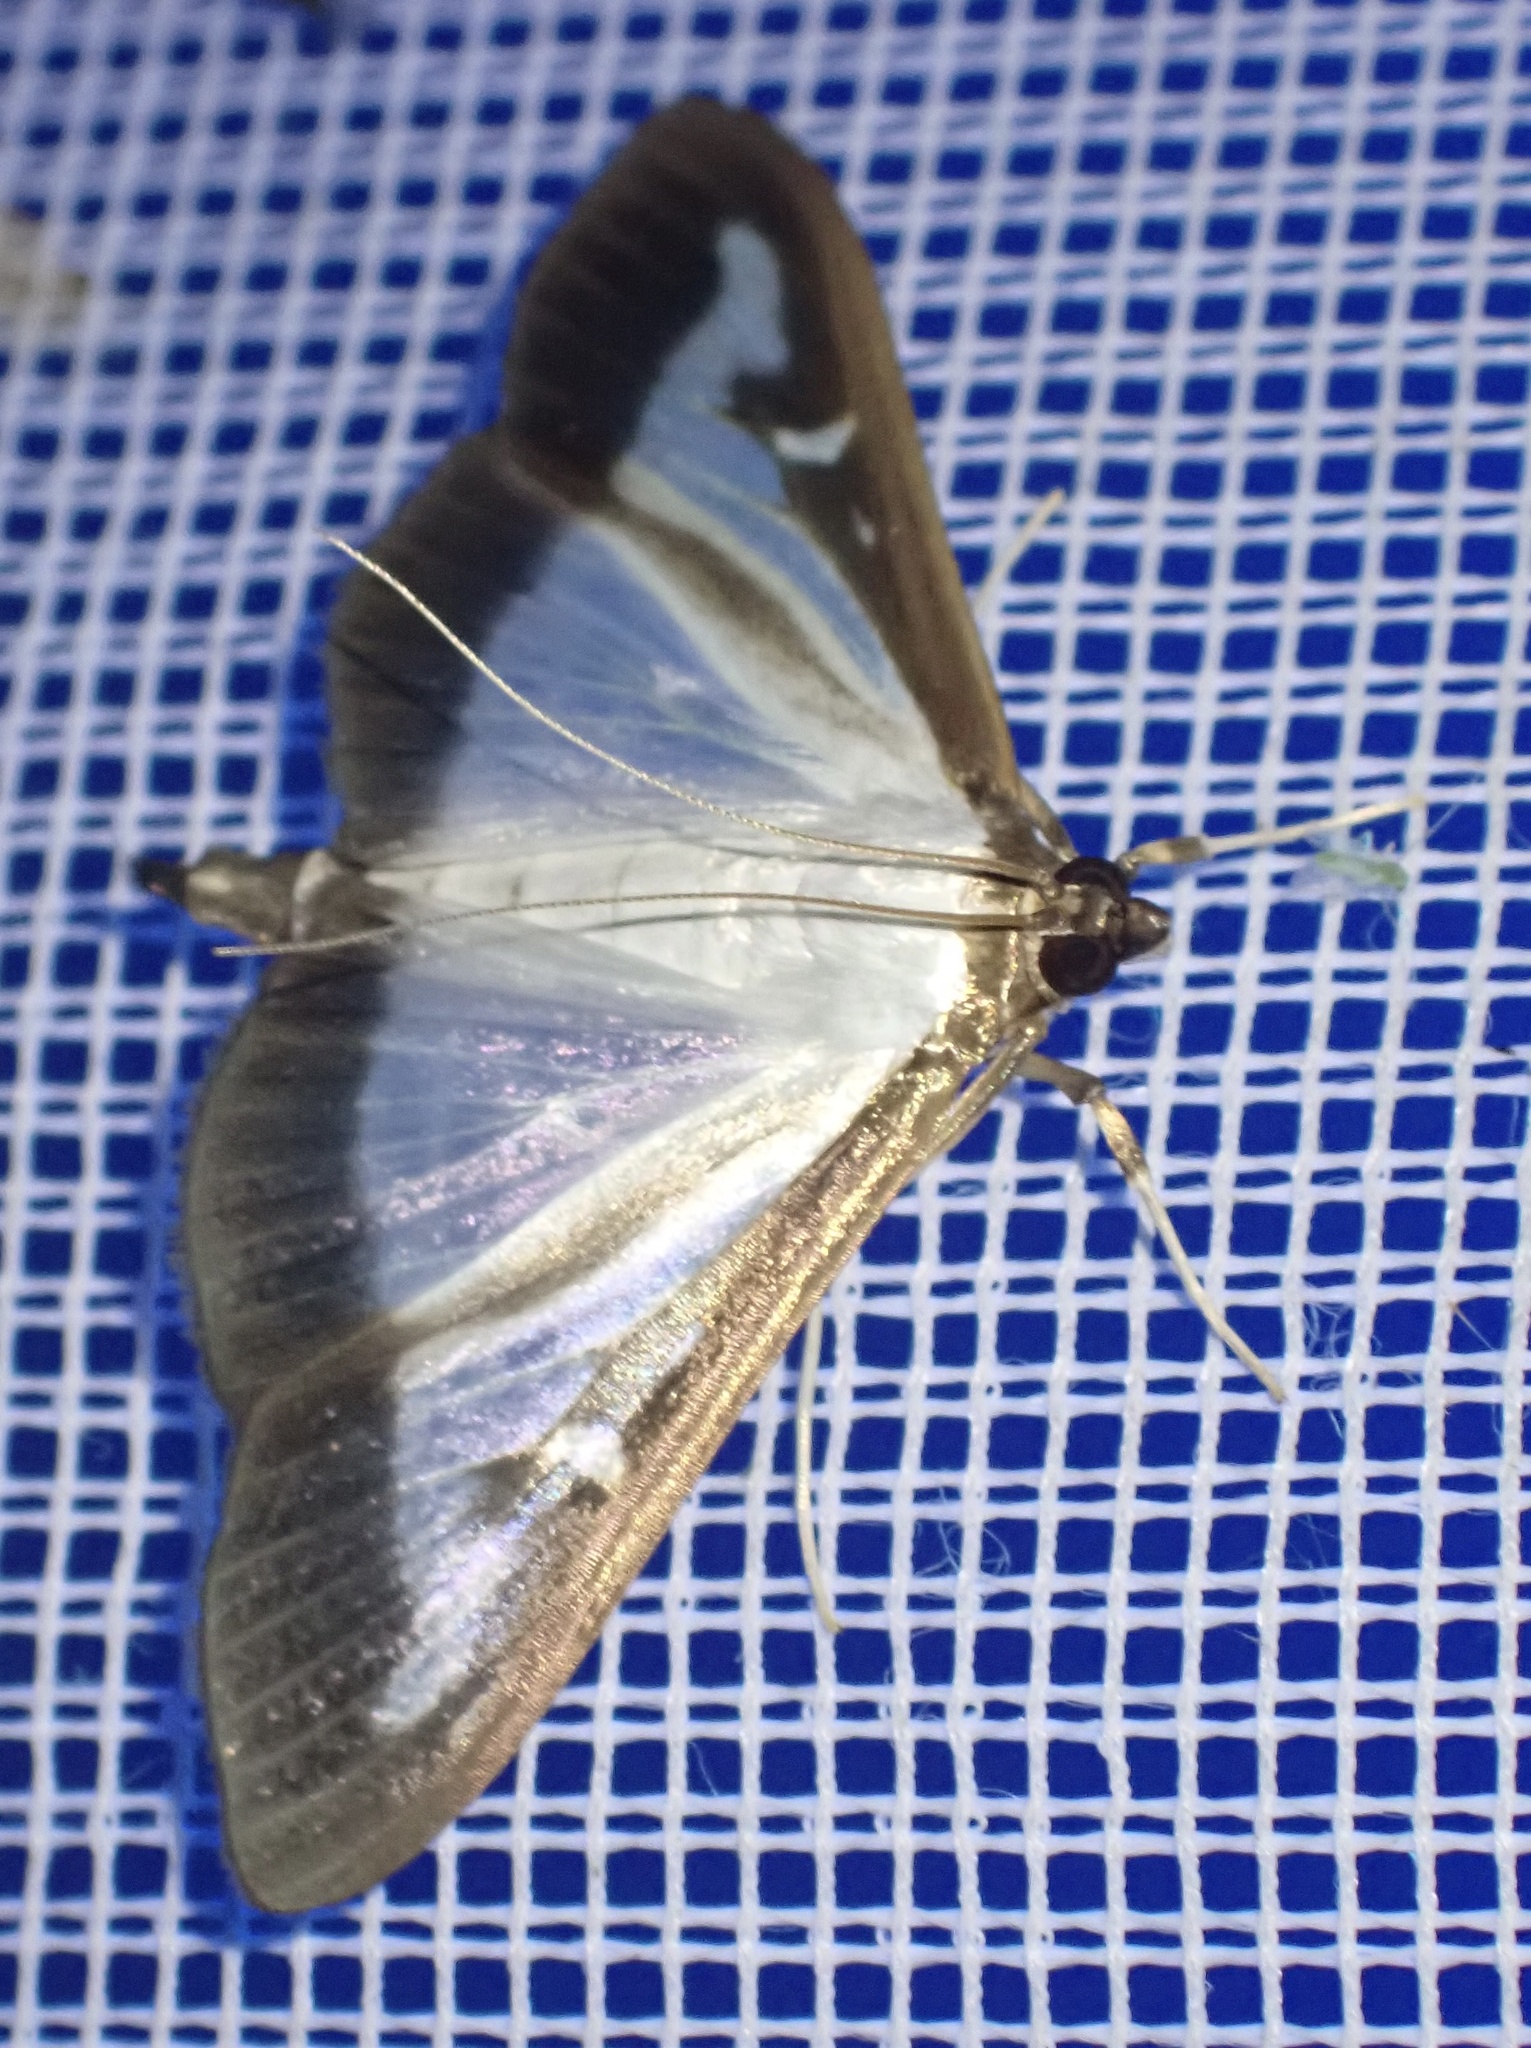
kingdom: Animalia
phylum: Arthropoda
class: Insecta
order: Lepidoptera
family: Crambidae
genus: Cydalima
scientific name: Cydalima perspectalis
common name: Box tree moth
